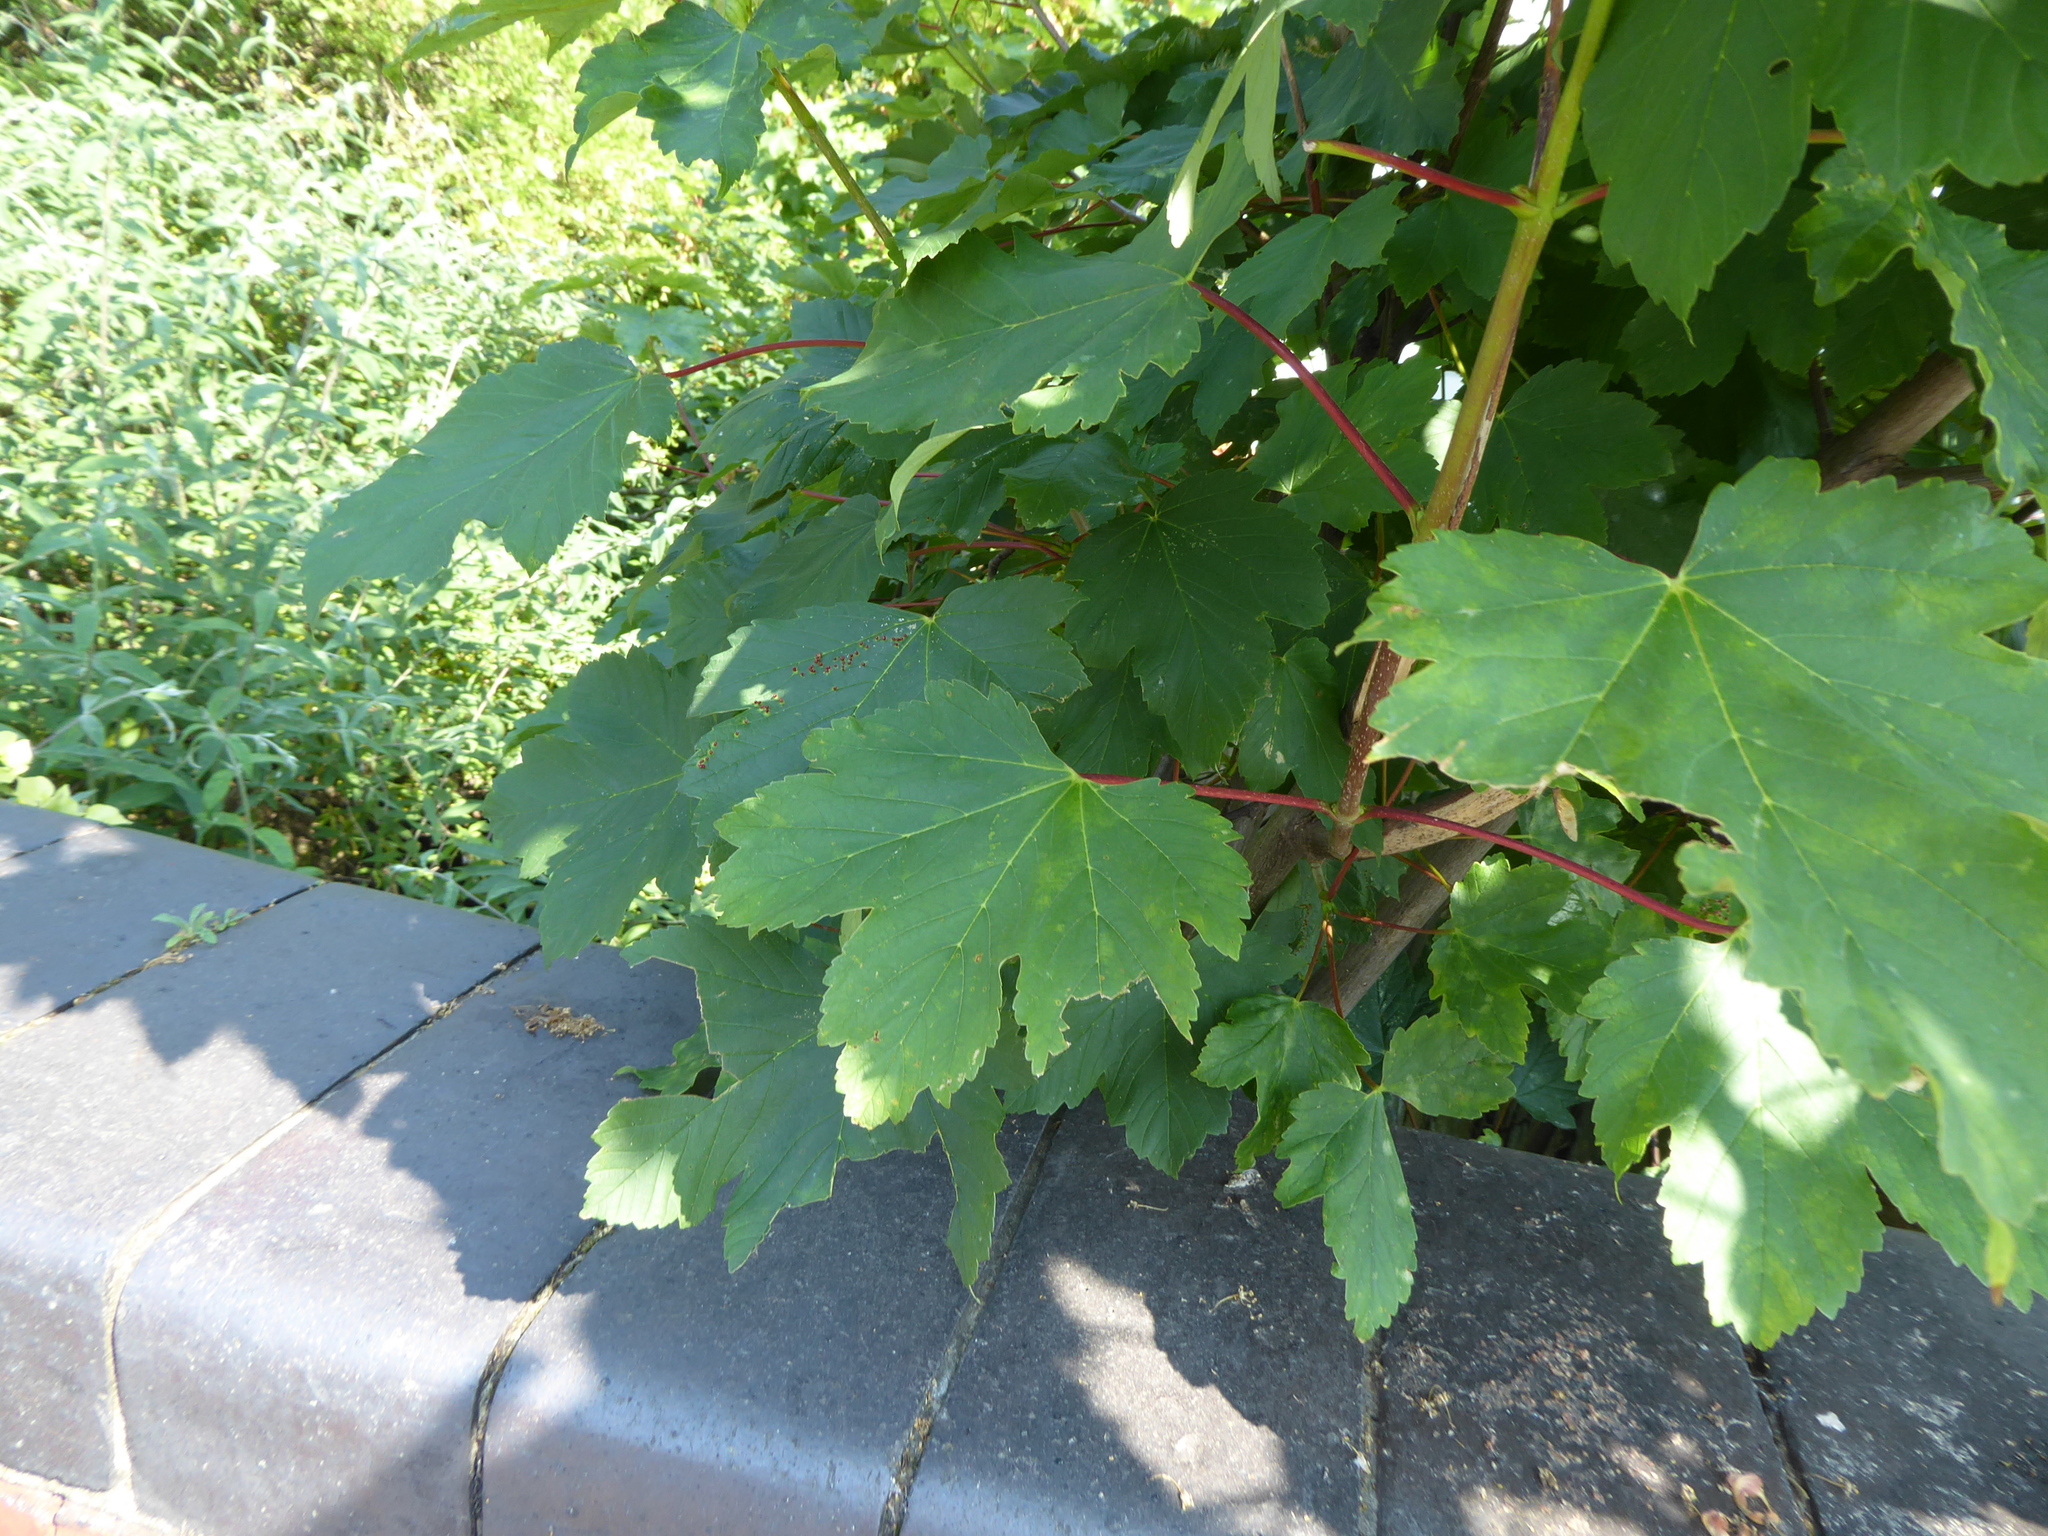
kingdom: Plantae
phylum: Tracheophyta
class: Magnoliopsida
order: Sapindales
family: Sapindaceae
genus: Acer
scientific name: Acer pseudoplatanus
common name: Sycamore
